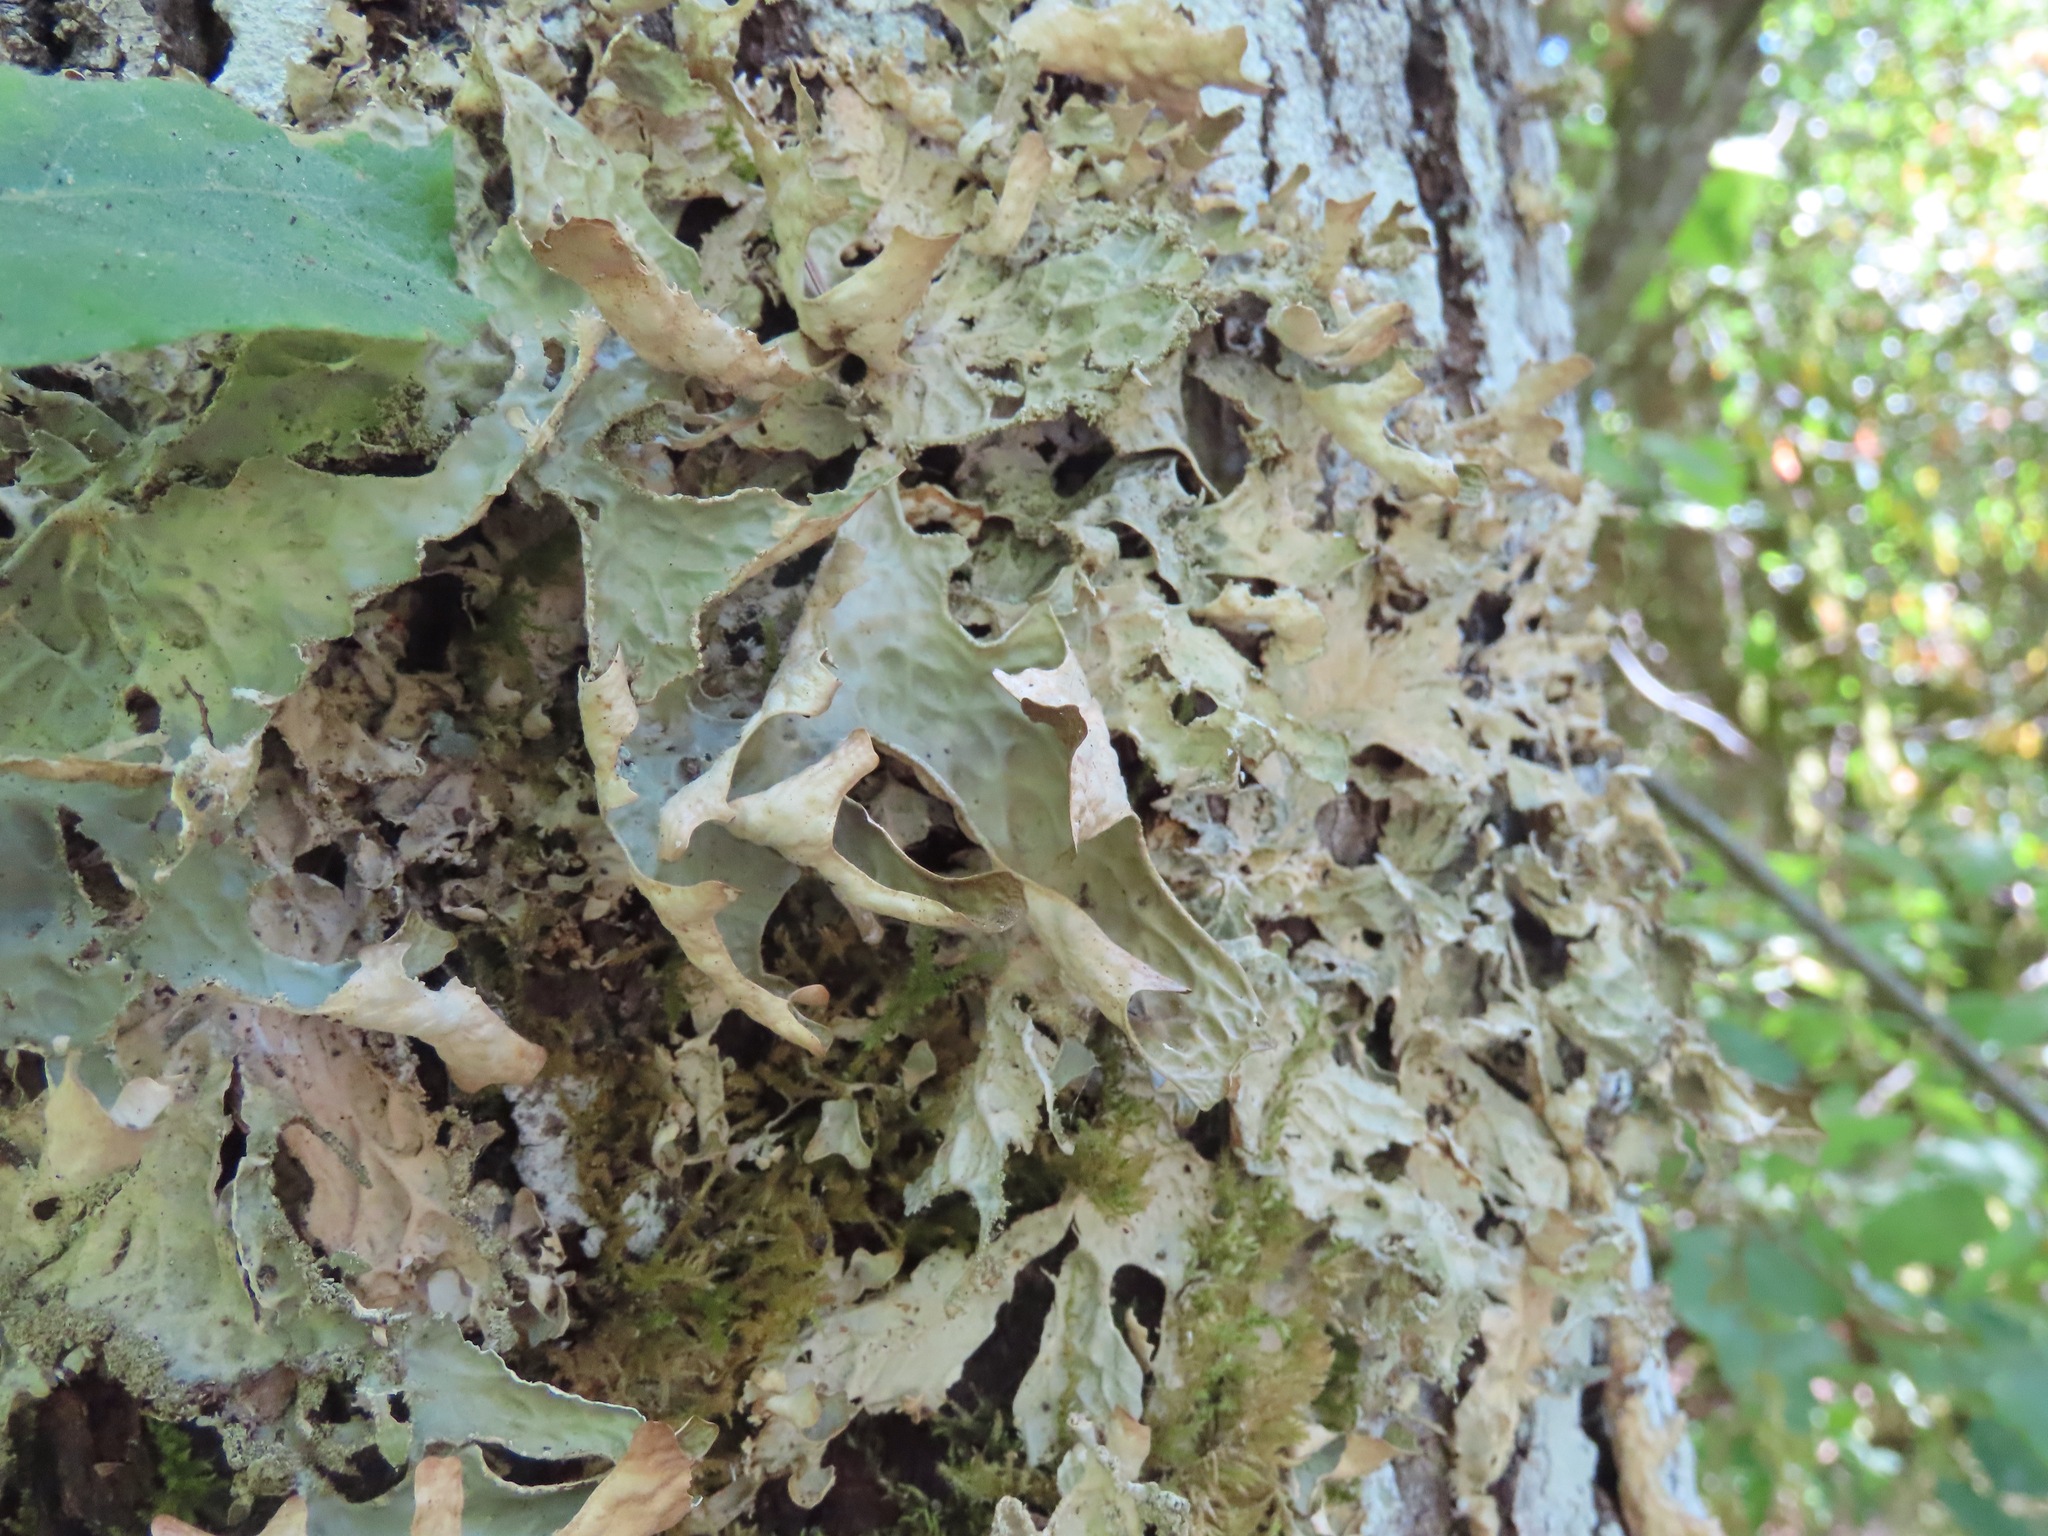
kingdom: Fungi
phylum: Ascomycota
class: Lecanoromycetes
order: Peltigerales
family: Lobariaceae
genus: Lobaria
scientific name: Lobaria pulmonaria
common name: Lungwort
